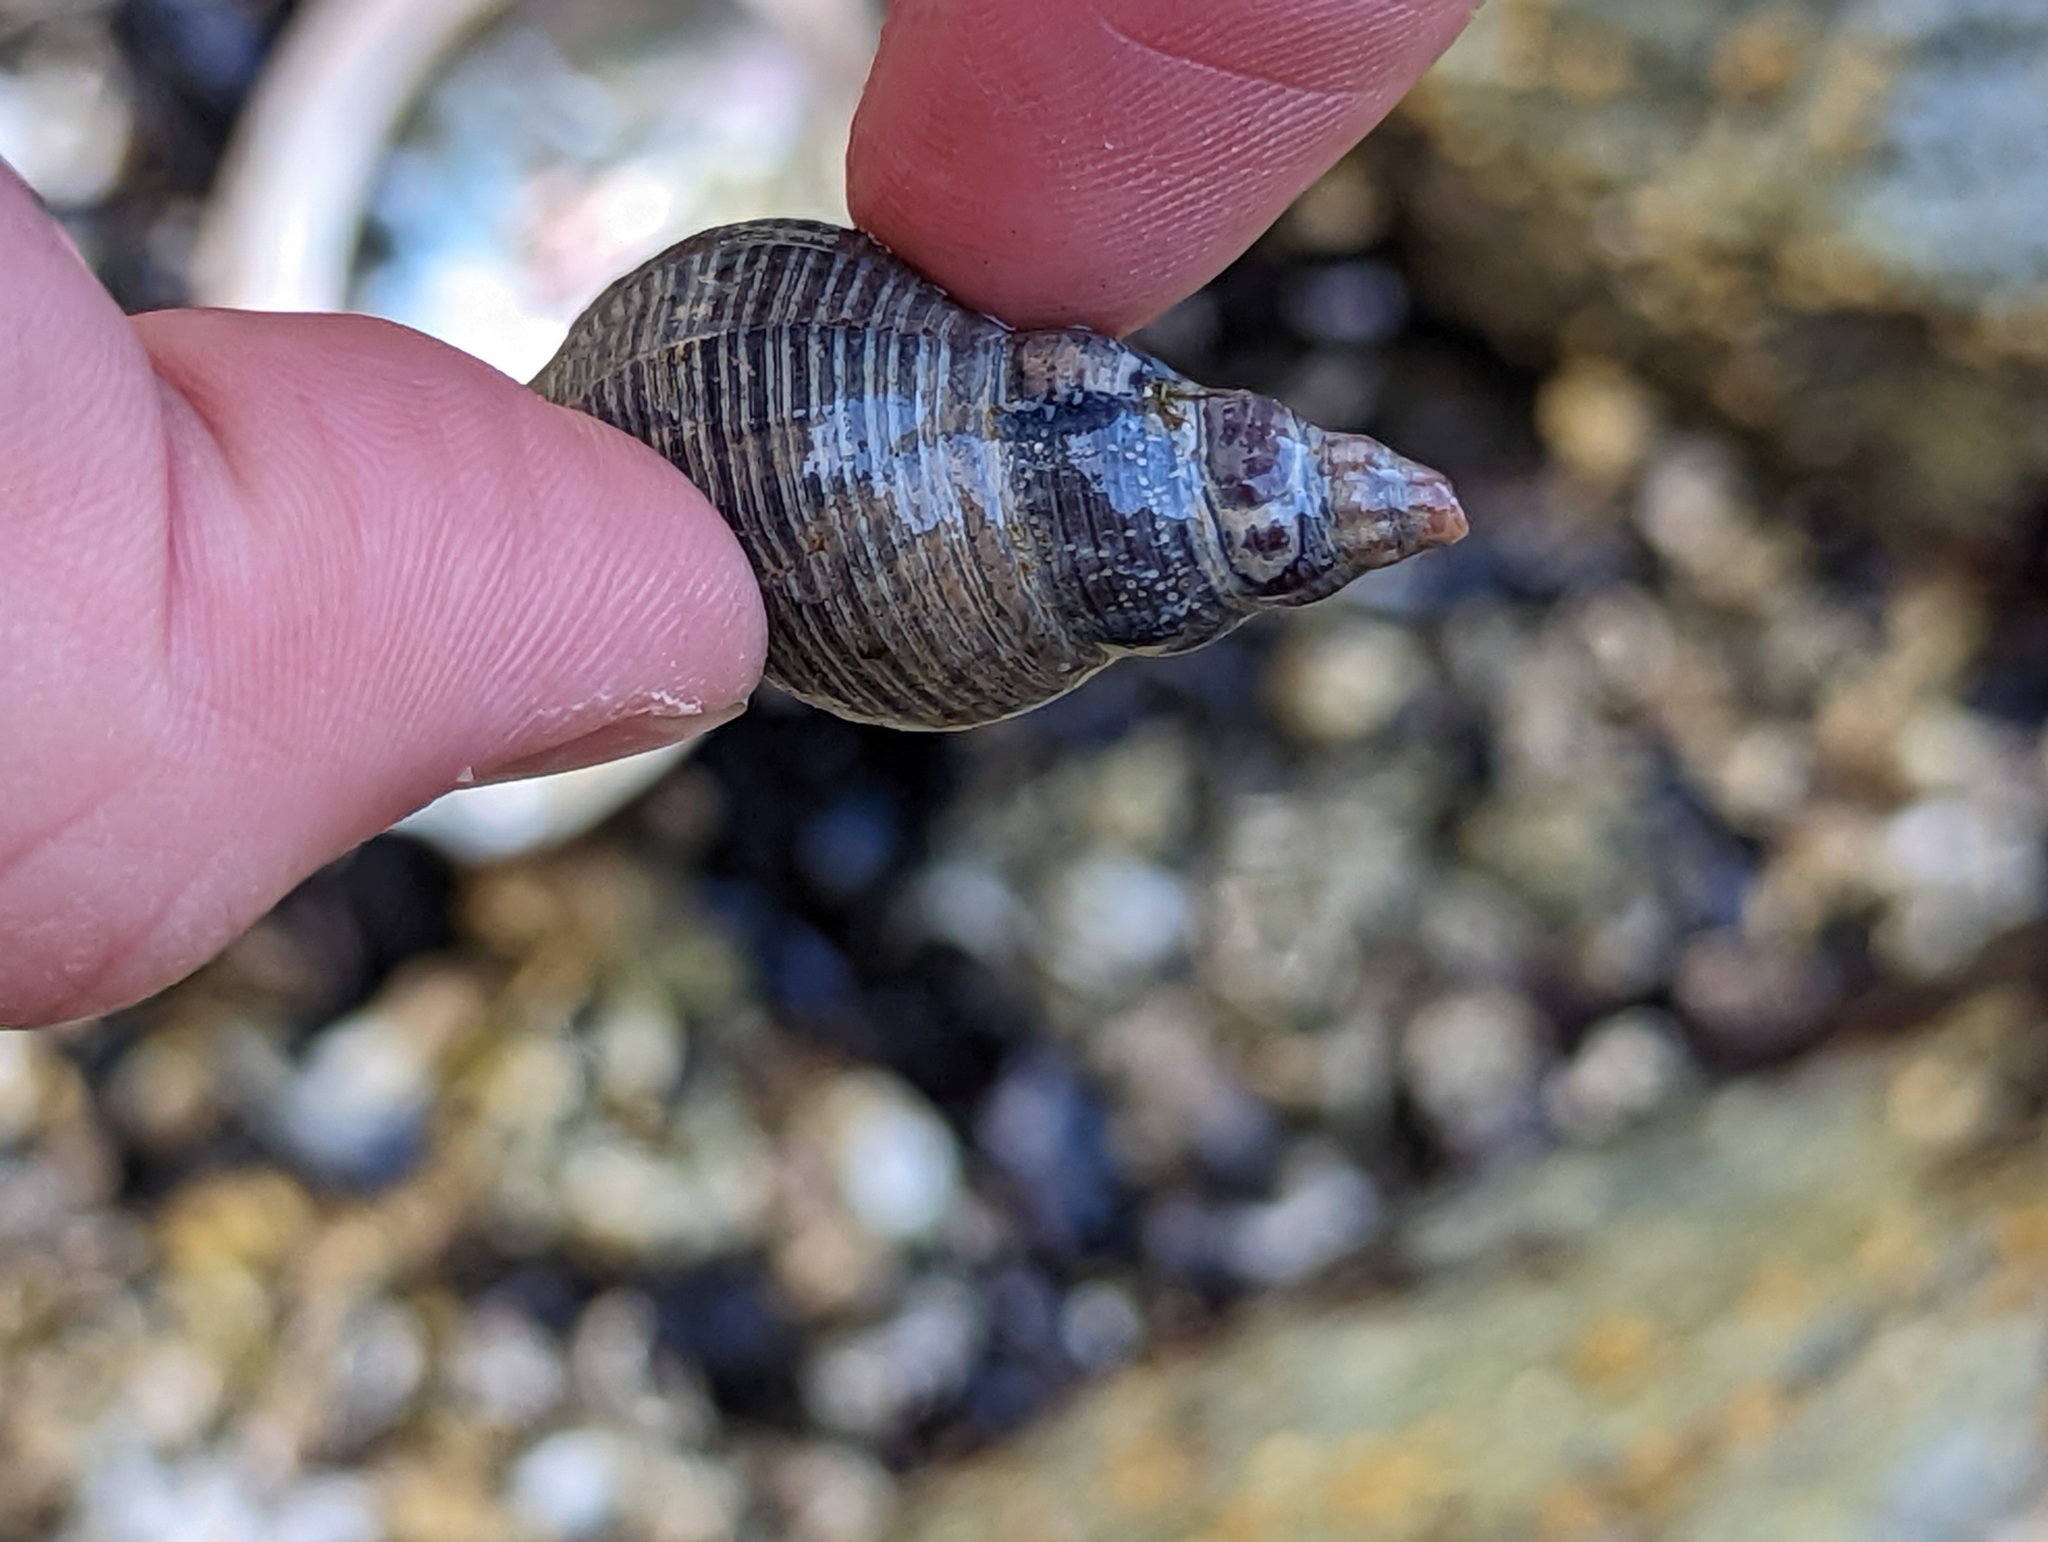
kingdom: Animalia
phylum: Mollusca
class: Gastropoda
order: Neogastropoda
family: Tudiclidae
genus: Lirabuccinum
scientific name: Lirabuccinum dirum
